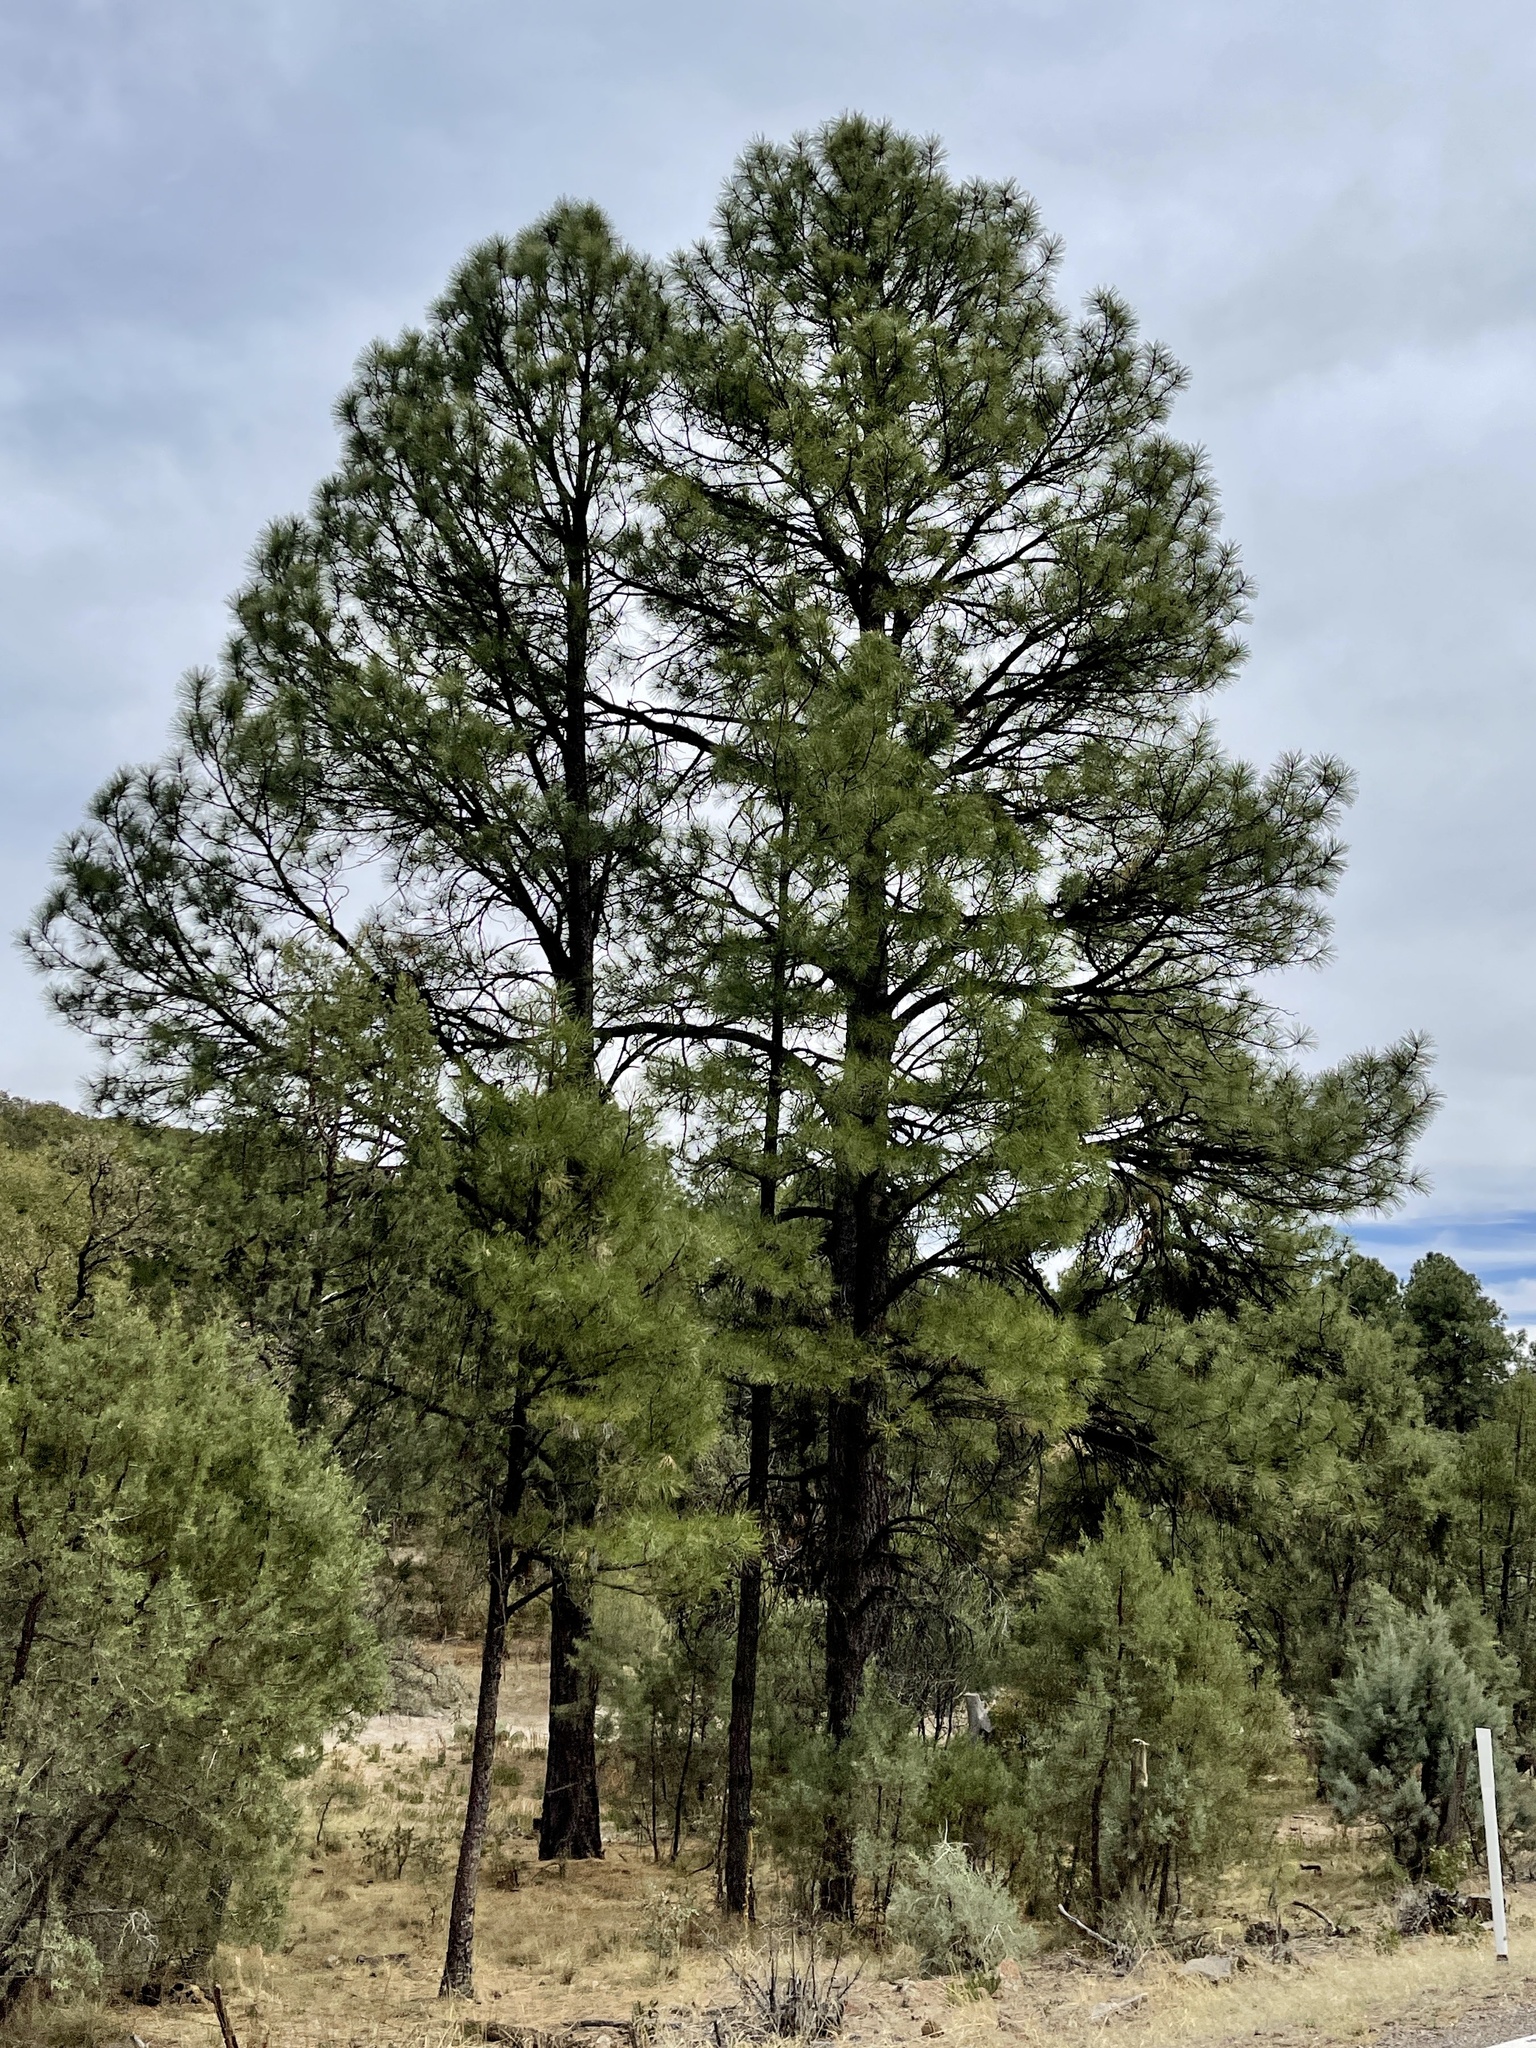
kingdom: Plantae
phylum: Tracheophyta
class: Pinopsida
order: Pinales
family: Pinaceae
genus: Pinus
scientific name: Pinus ponderosa
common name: Western yellow-pine
